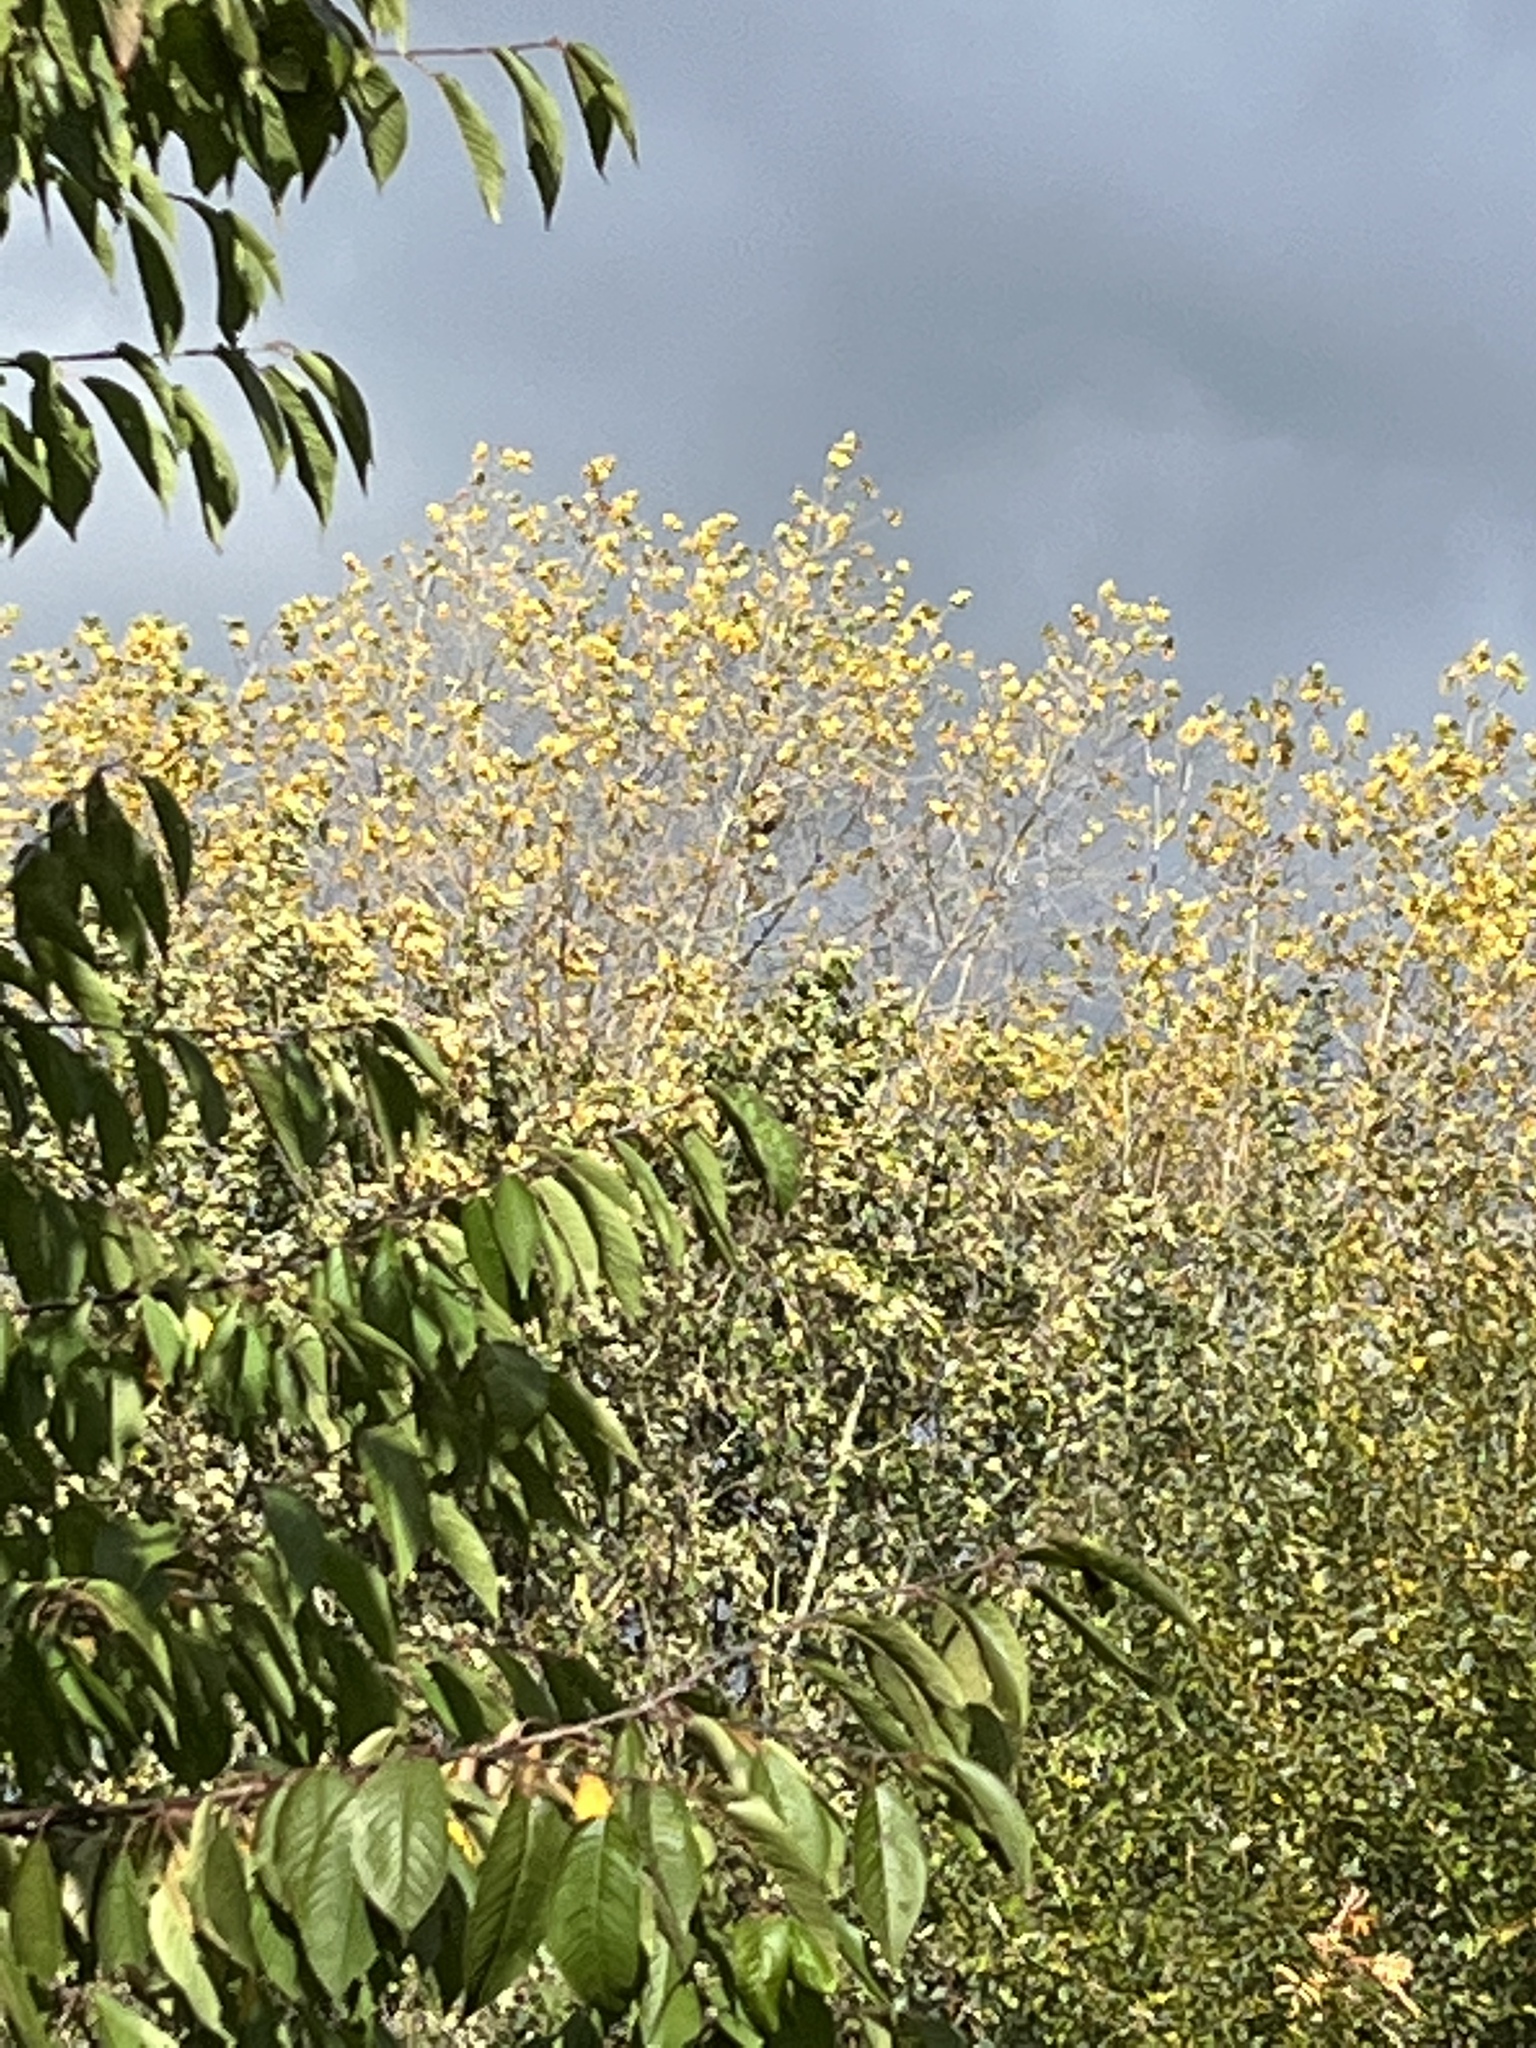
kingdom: Animalia
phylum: Arthropoda
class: Insecta
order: Hymenoptera
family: Vespidae
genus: Vespa
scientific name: Vespa velutina
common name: Asian hornet
